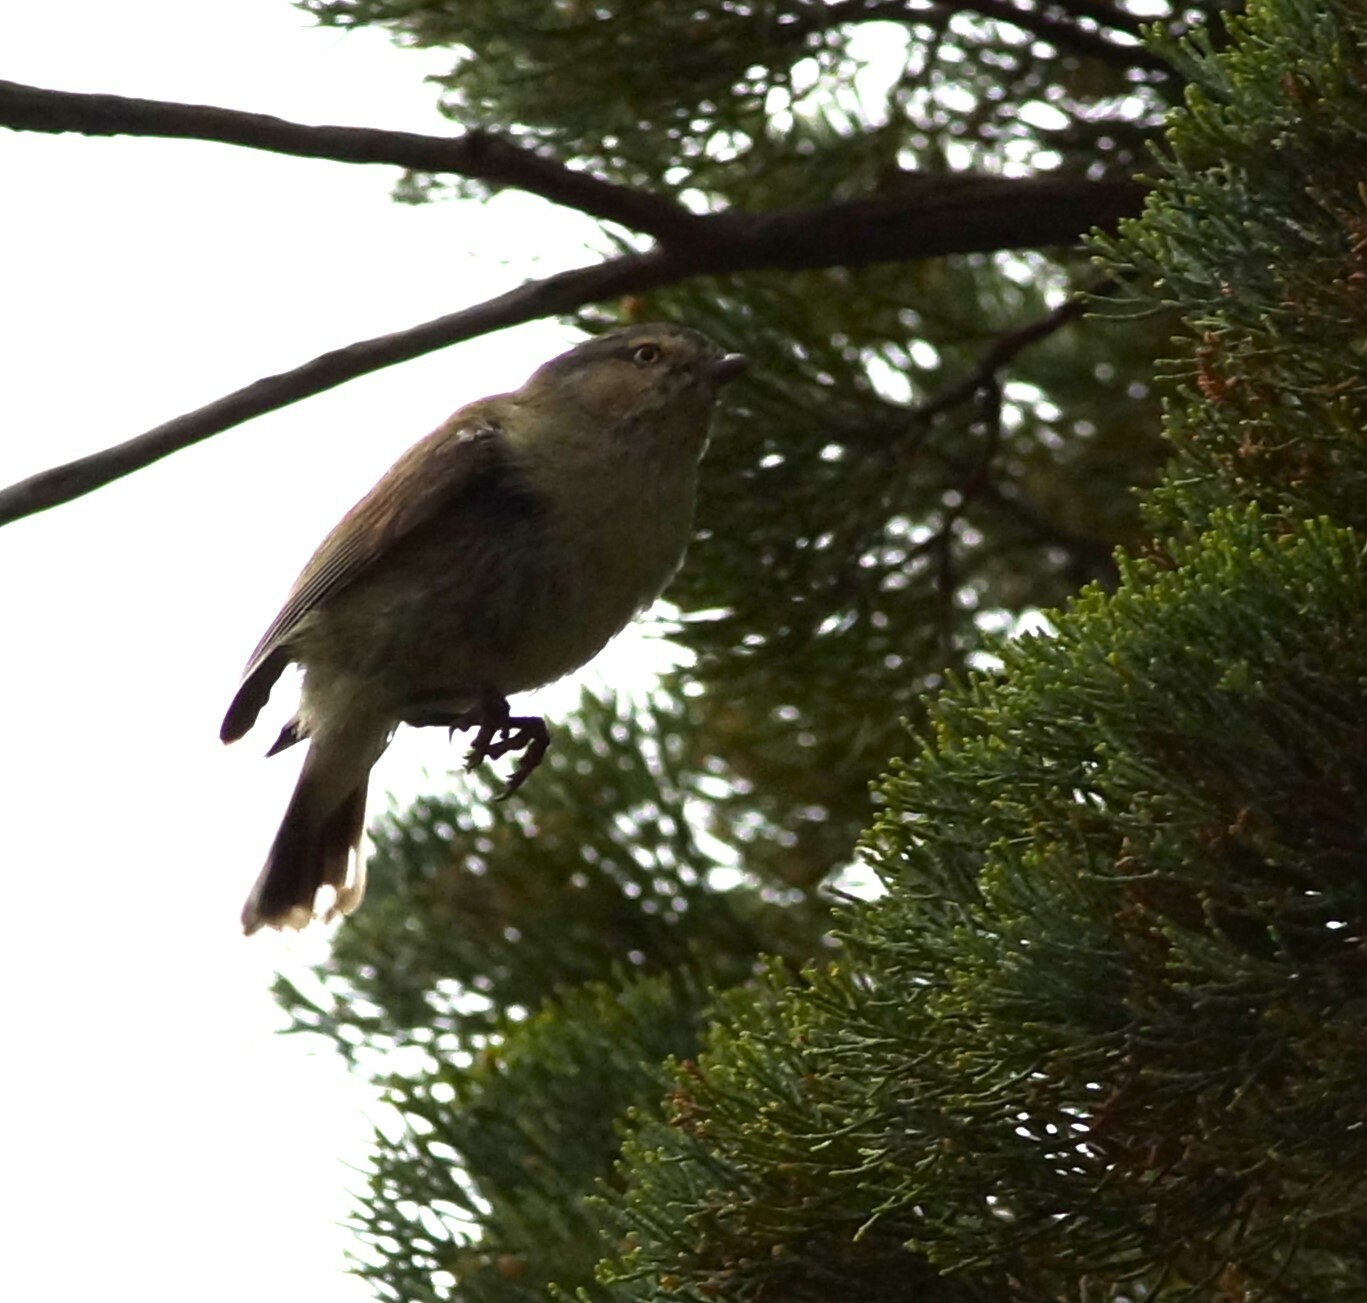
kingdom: Animalia
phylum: Chordata
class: Aves
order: Passeriformes
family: Acanthizidae
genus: Smicrornis
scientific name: Smicrornis brevirostris
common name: Weebill
